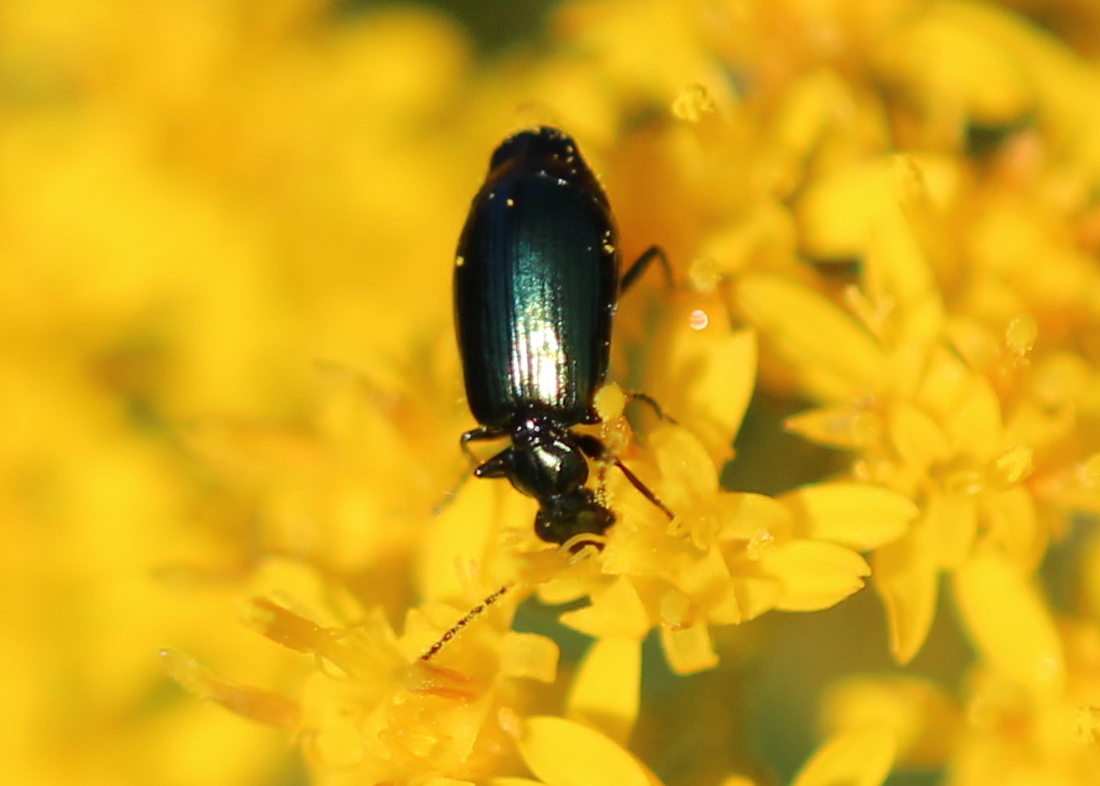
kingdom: Animalia
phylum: Arthropoda
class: Insecta
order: Coleoptera
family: Carabidae
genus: Lebia
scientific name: Lebia viridis
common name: Flower lebia beetle
